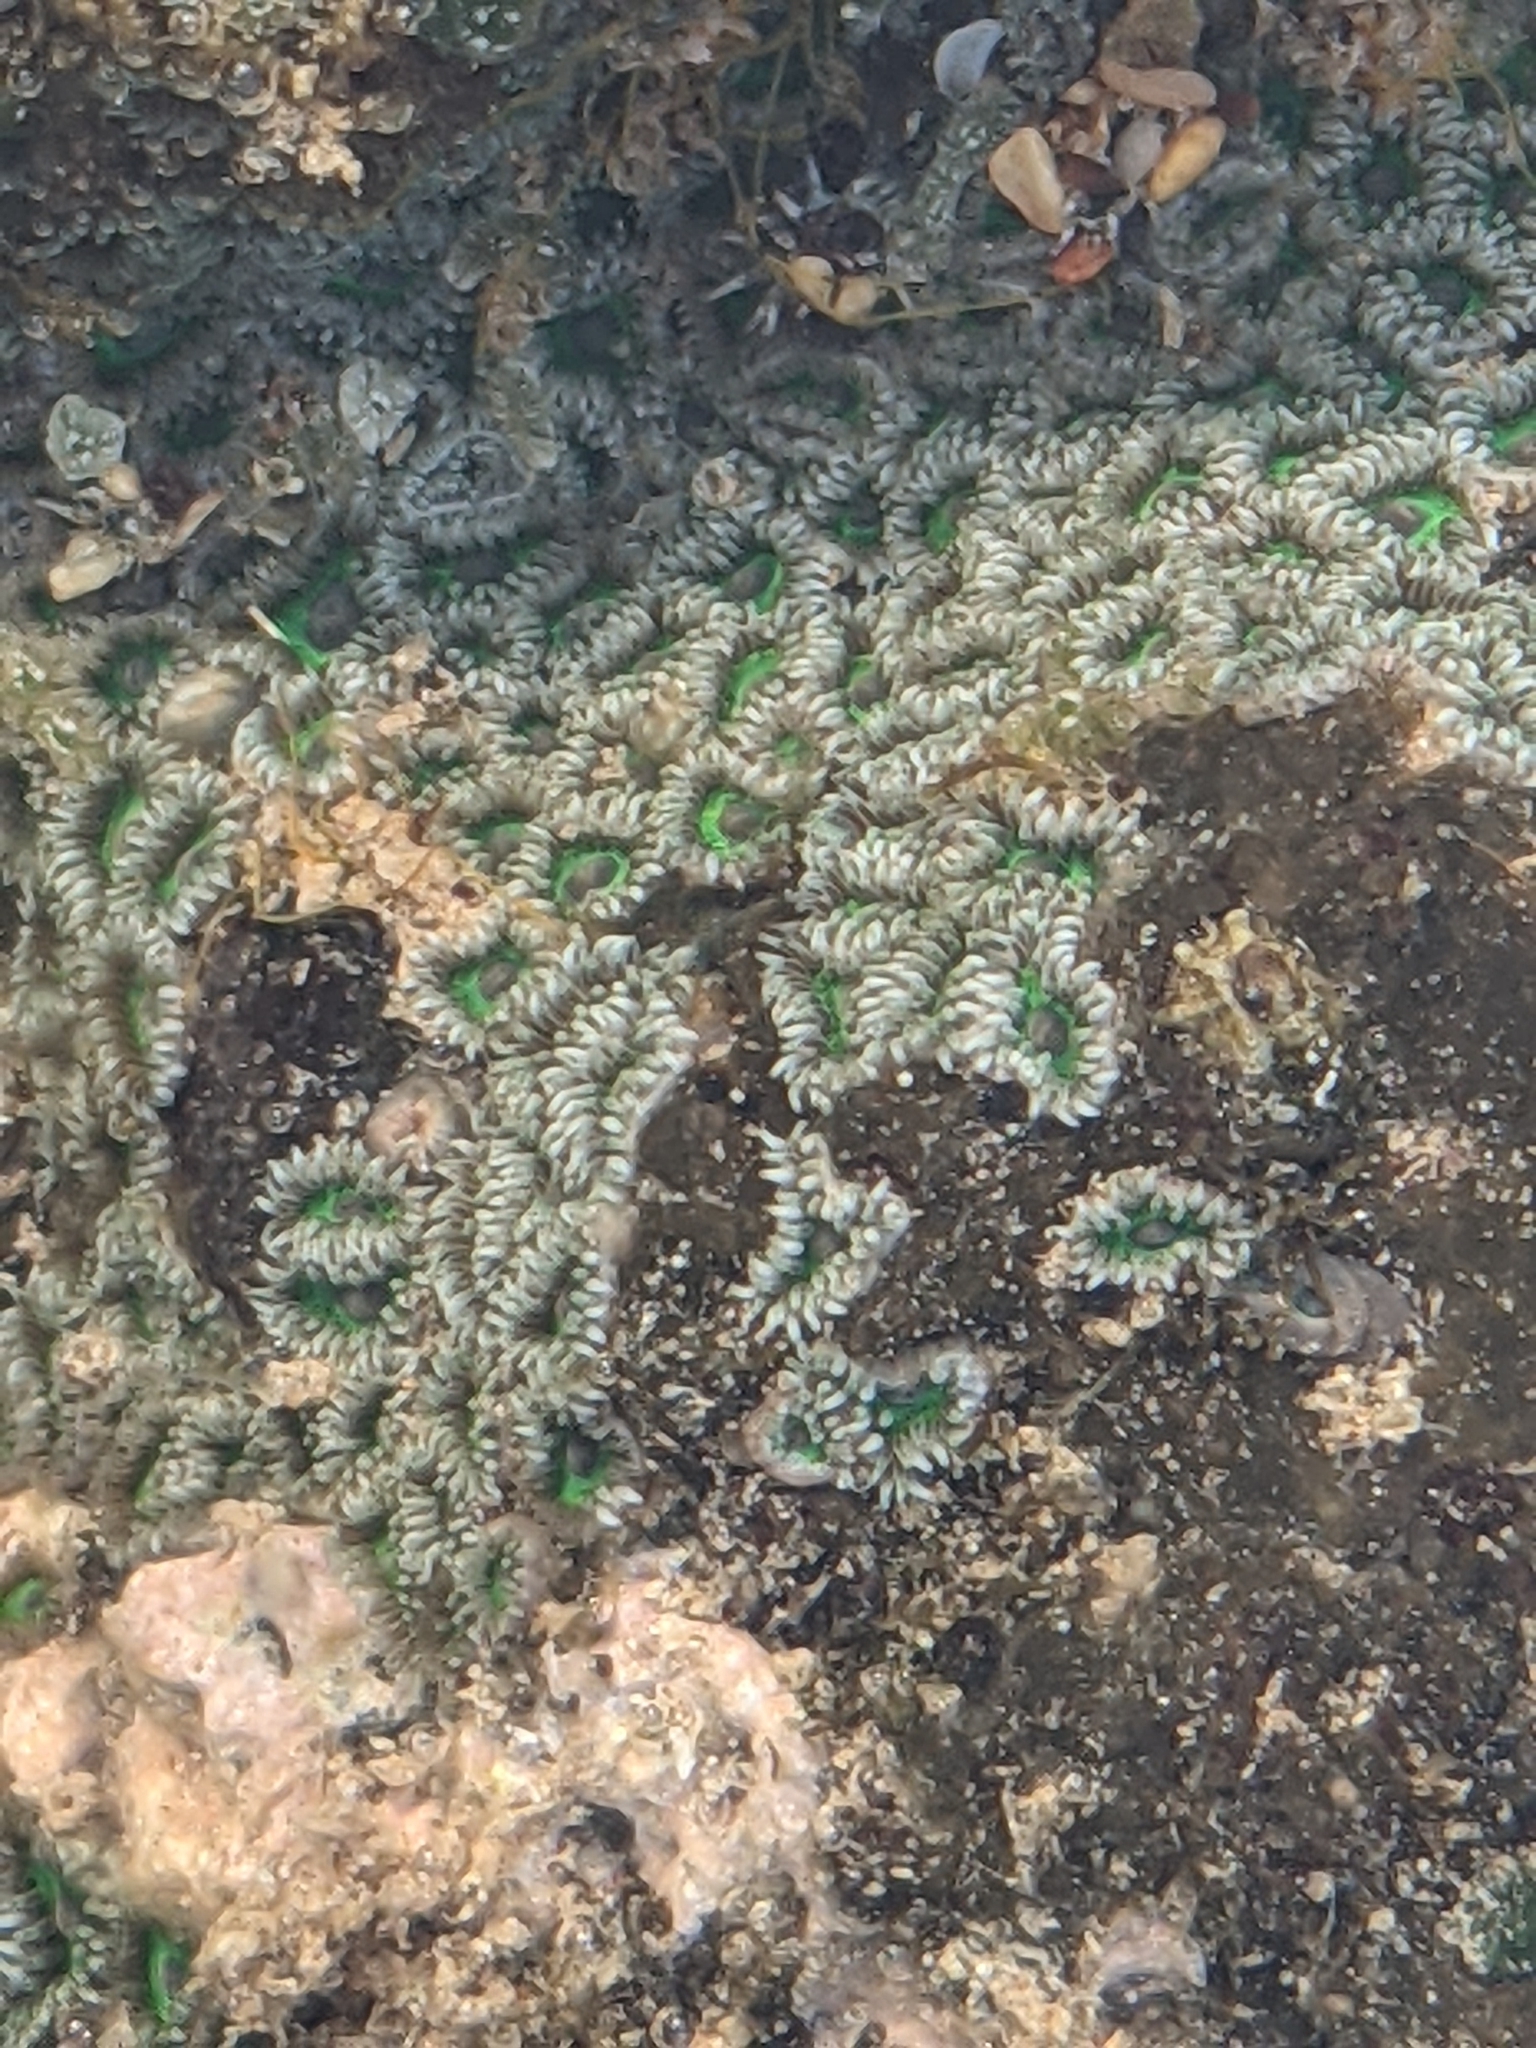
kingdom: Animalia
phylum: Cnidaria
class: Anthozoa
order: Zoantharia
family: Zoanthidae
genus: Zoanthus
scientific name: Zoanthus sansibaricus
